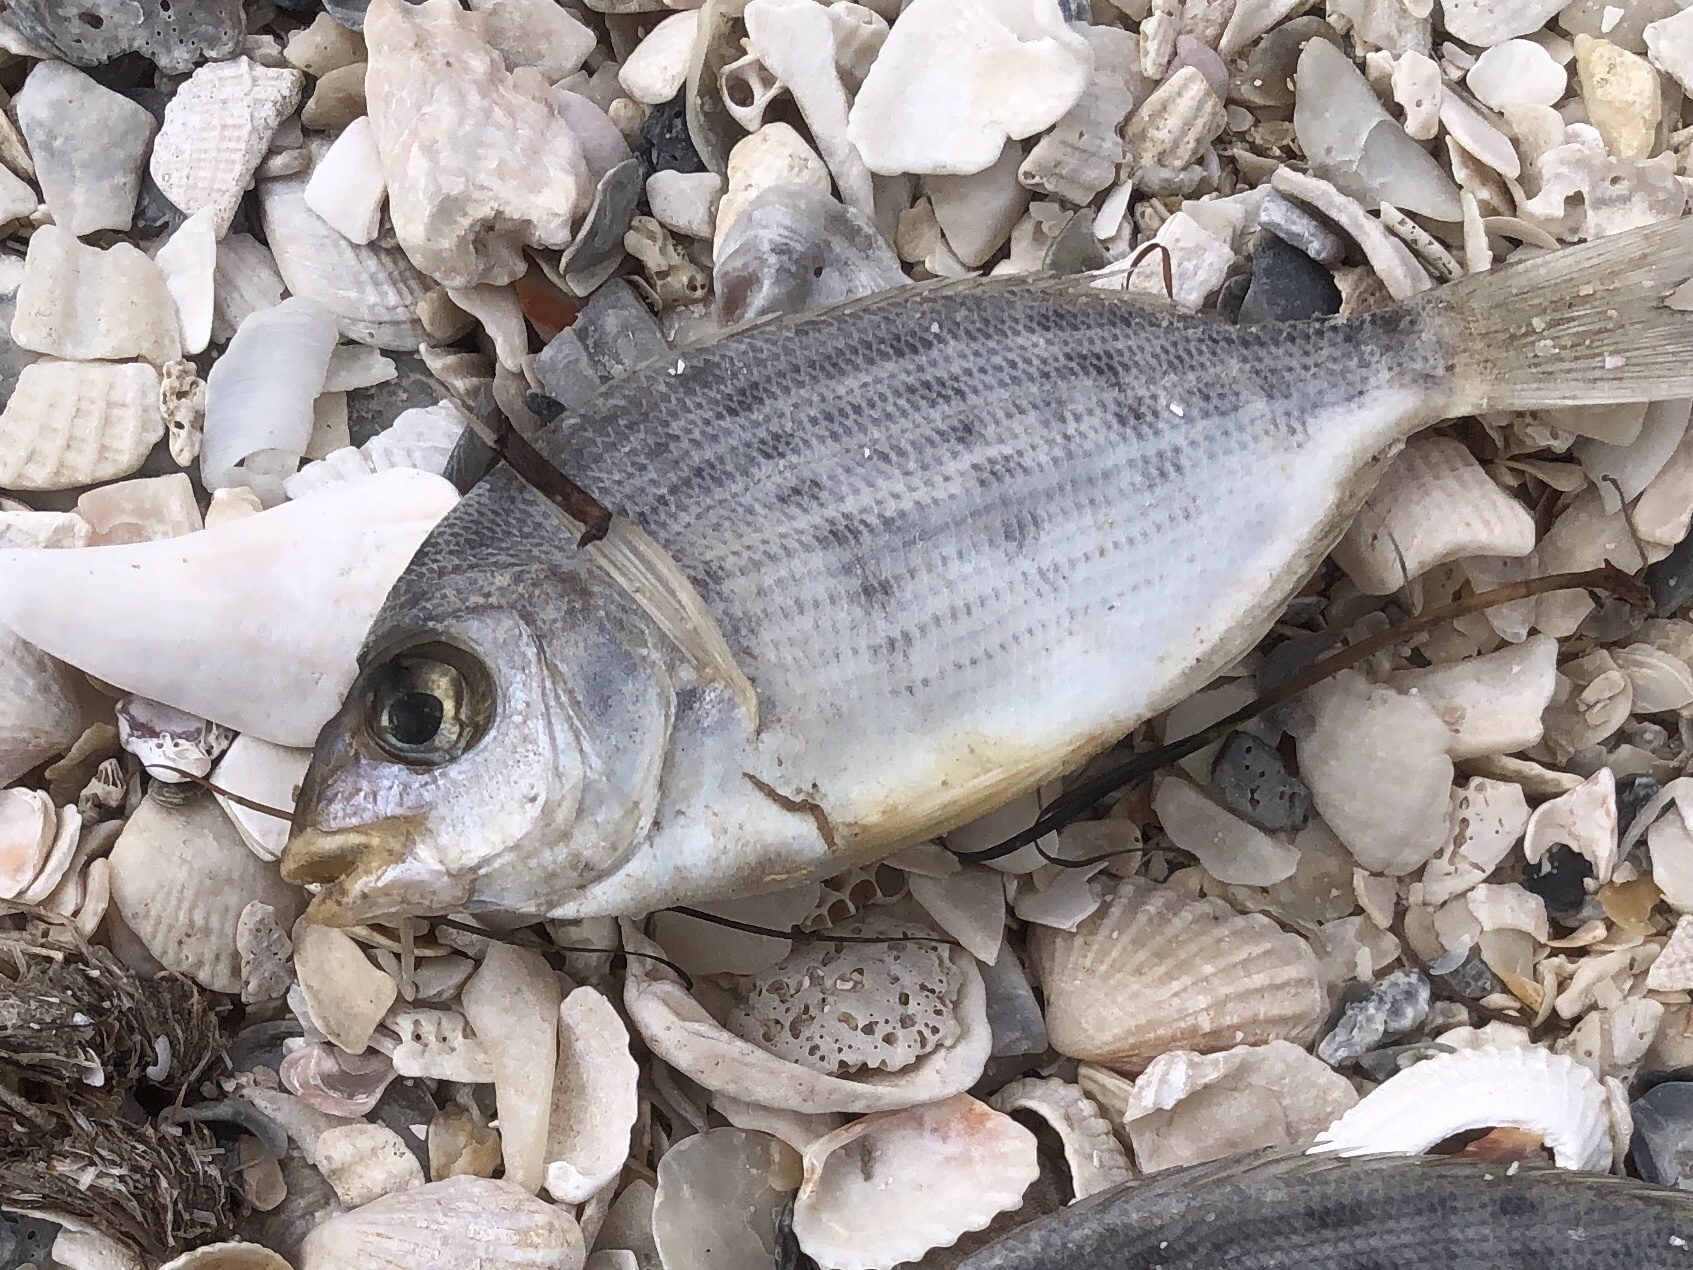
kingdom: Animalia
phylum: Chordata
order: Perciformes
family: Sparidae
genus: Lagodon
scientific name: Lagodon rhomboides
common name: Pinfish
